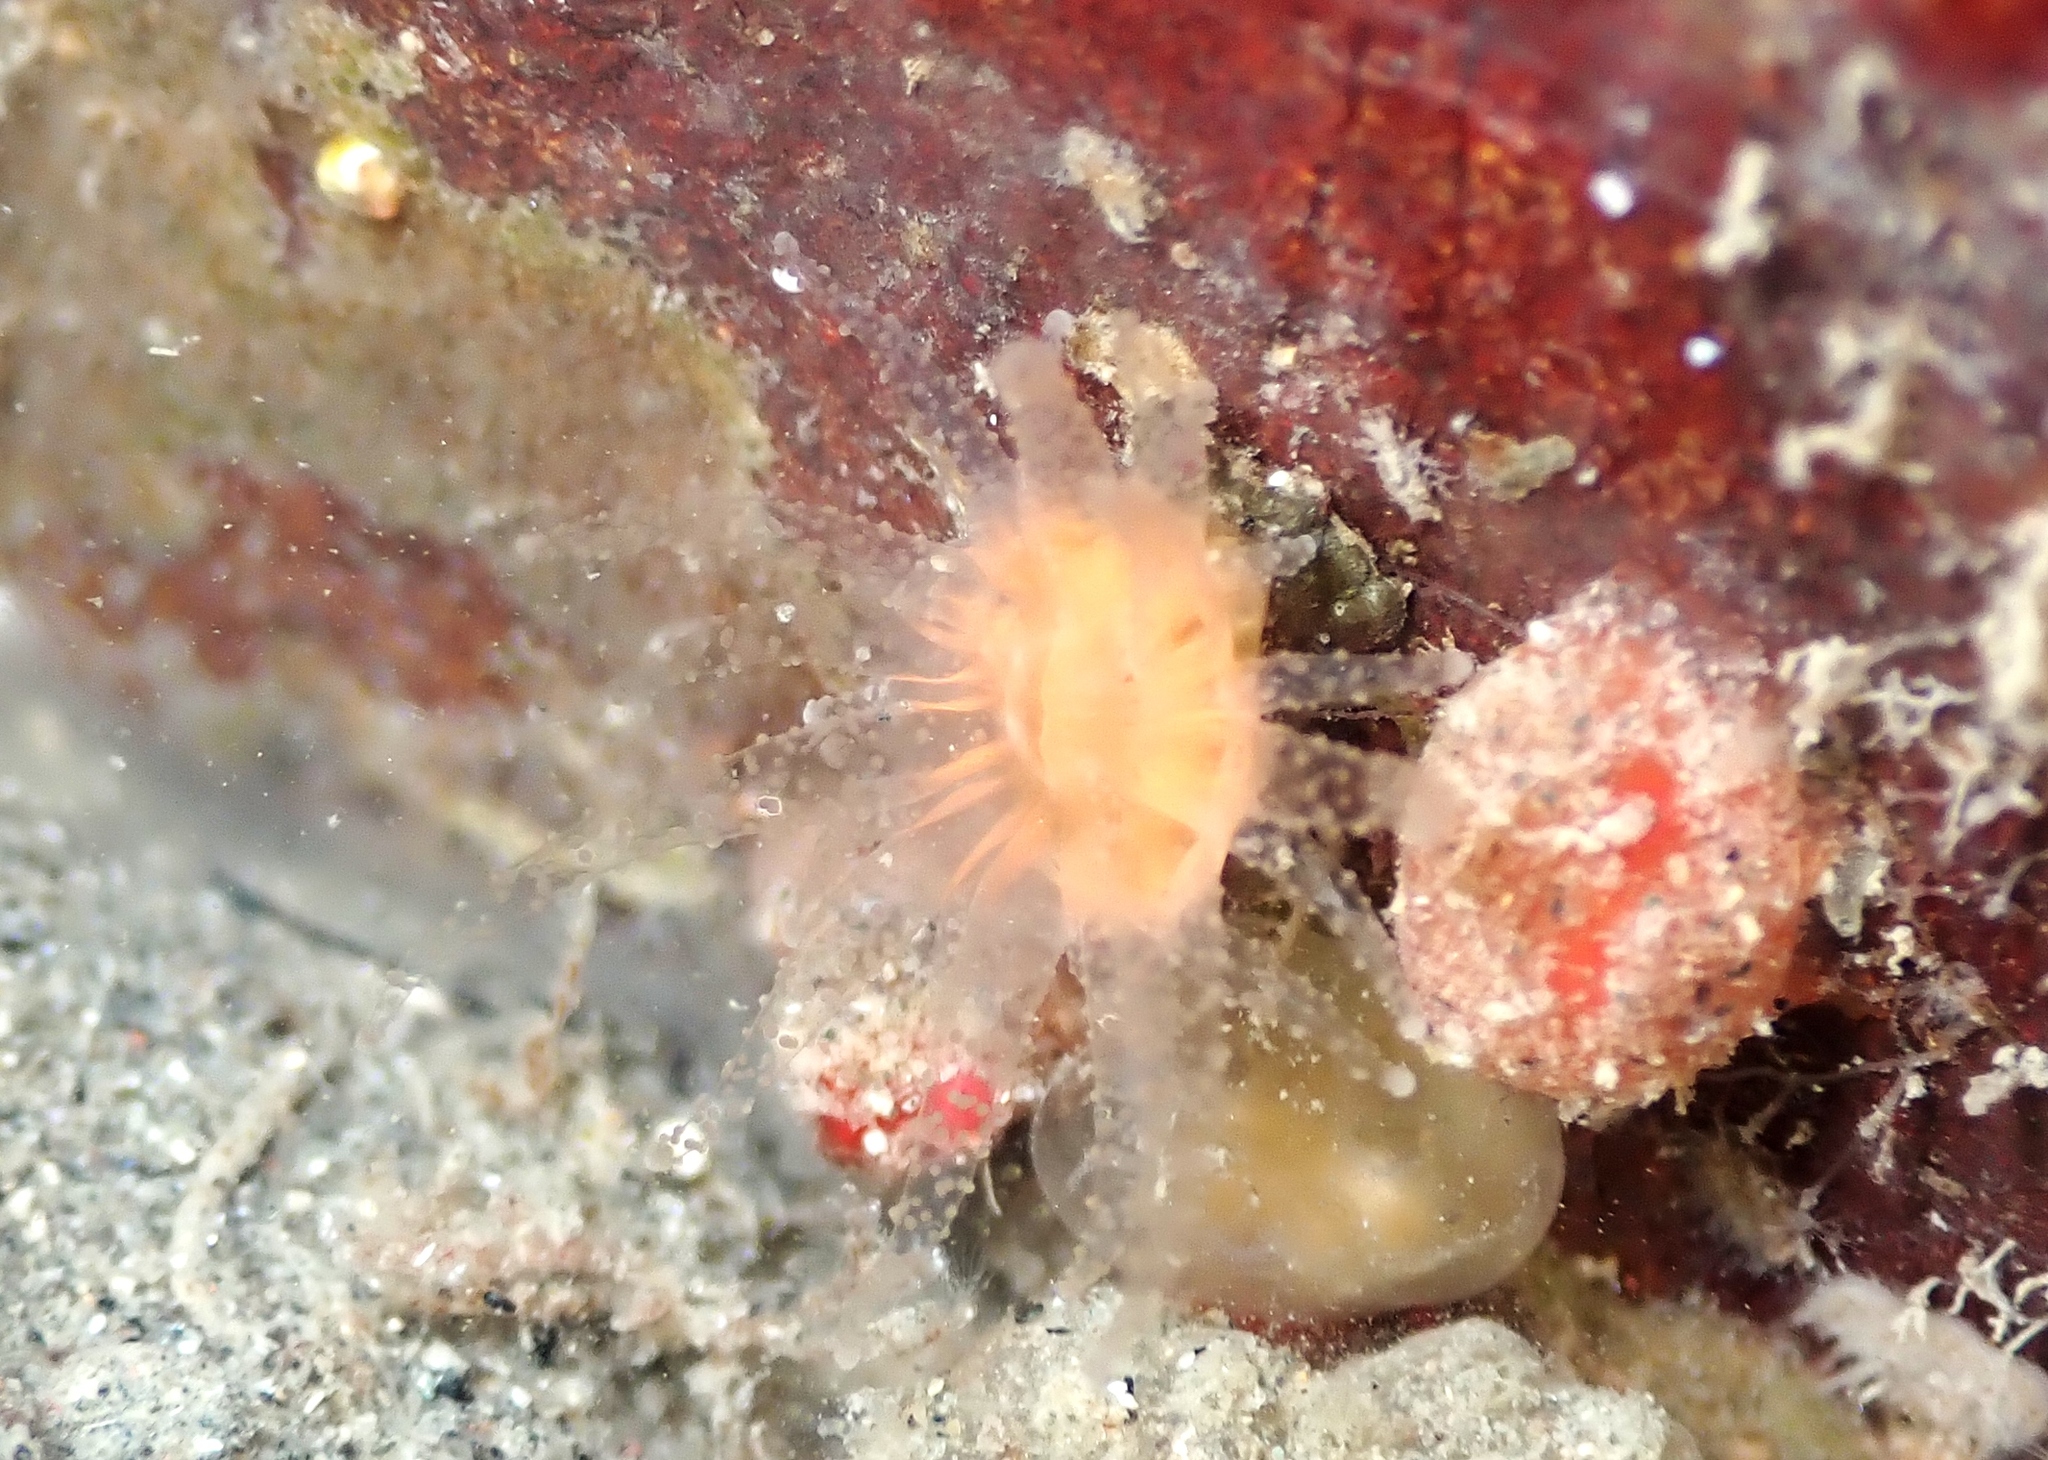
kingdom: Animalia
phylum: Cnidaria
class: Anthozoa
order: Scleractinia
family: Flabellidae
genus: Monomyces
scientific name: Monomyces rubrum
